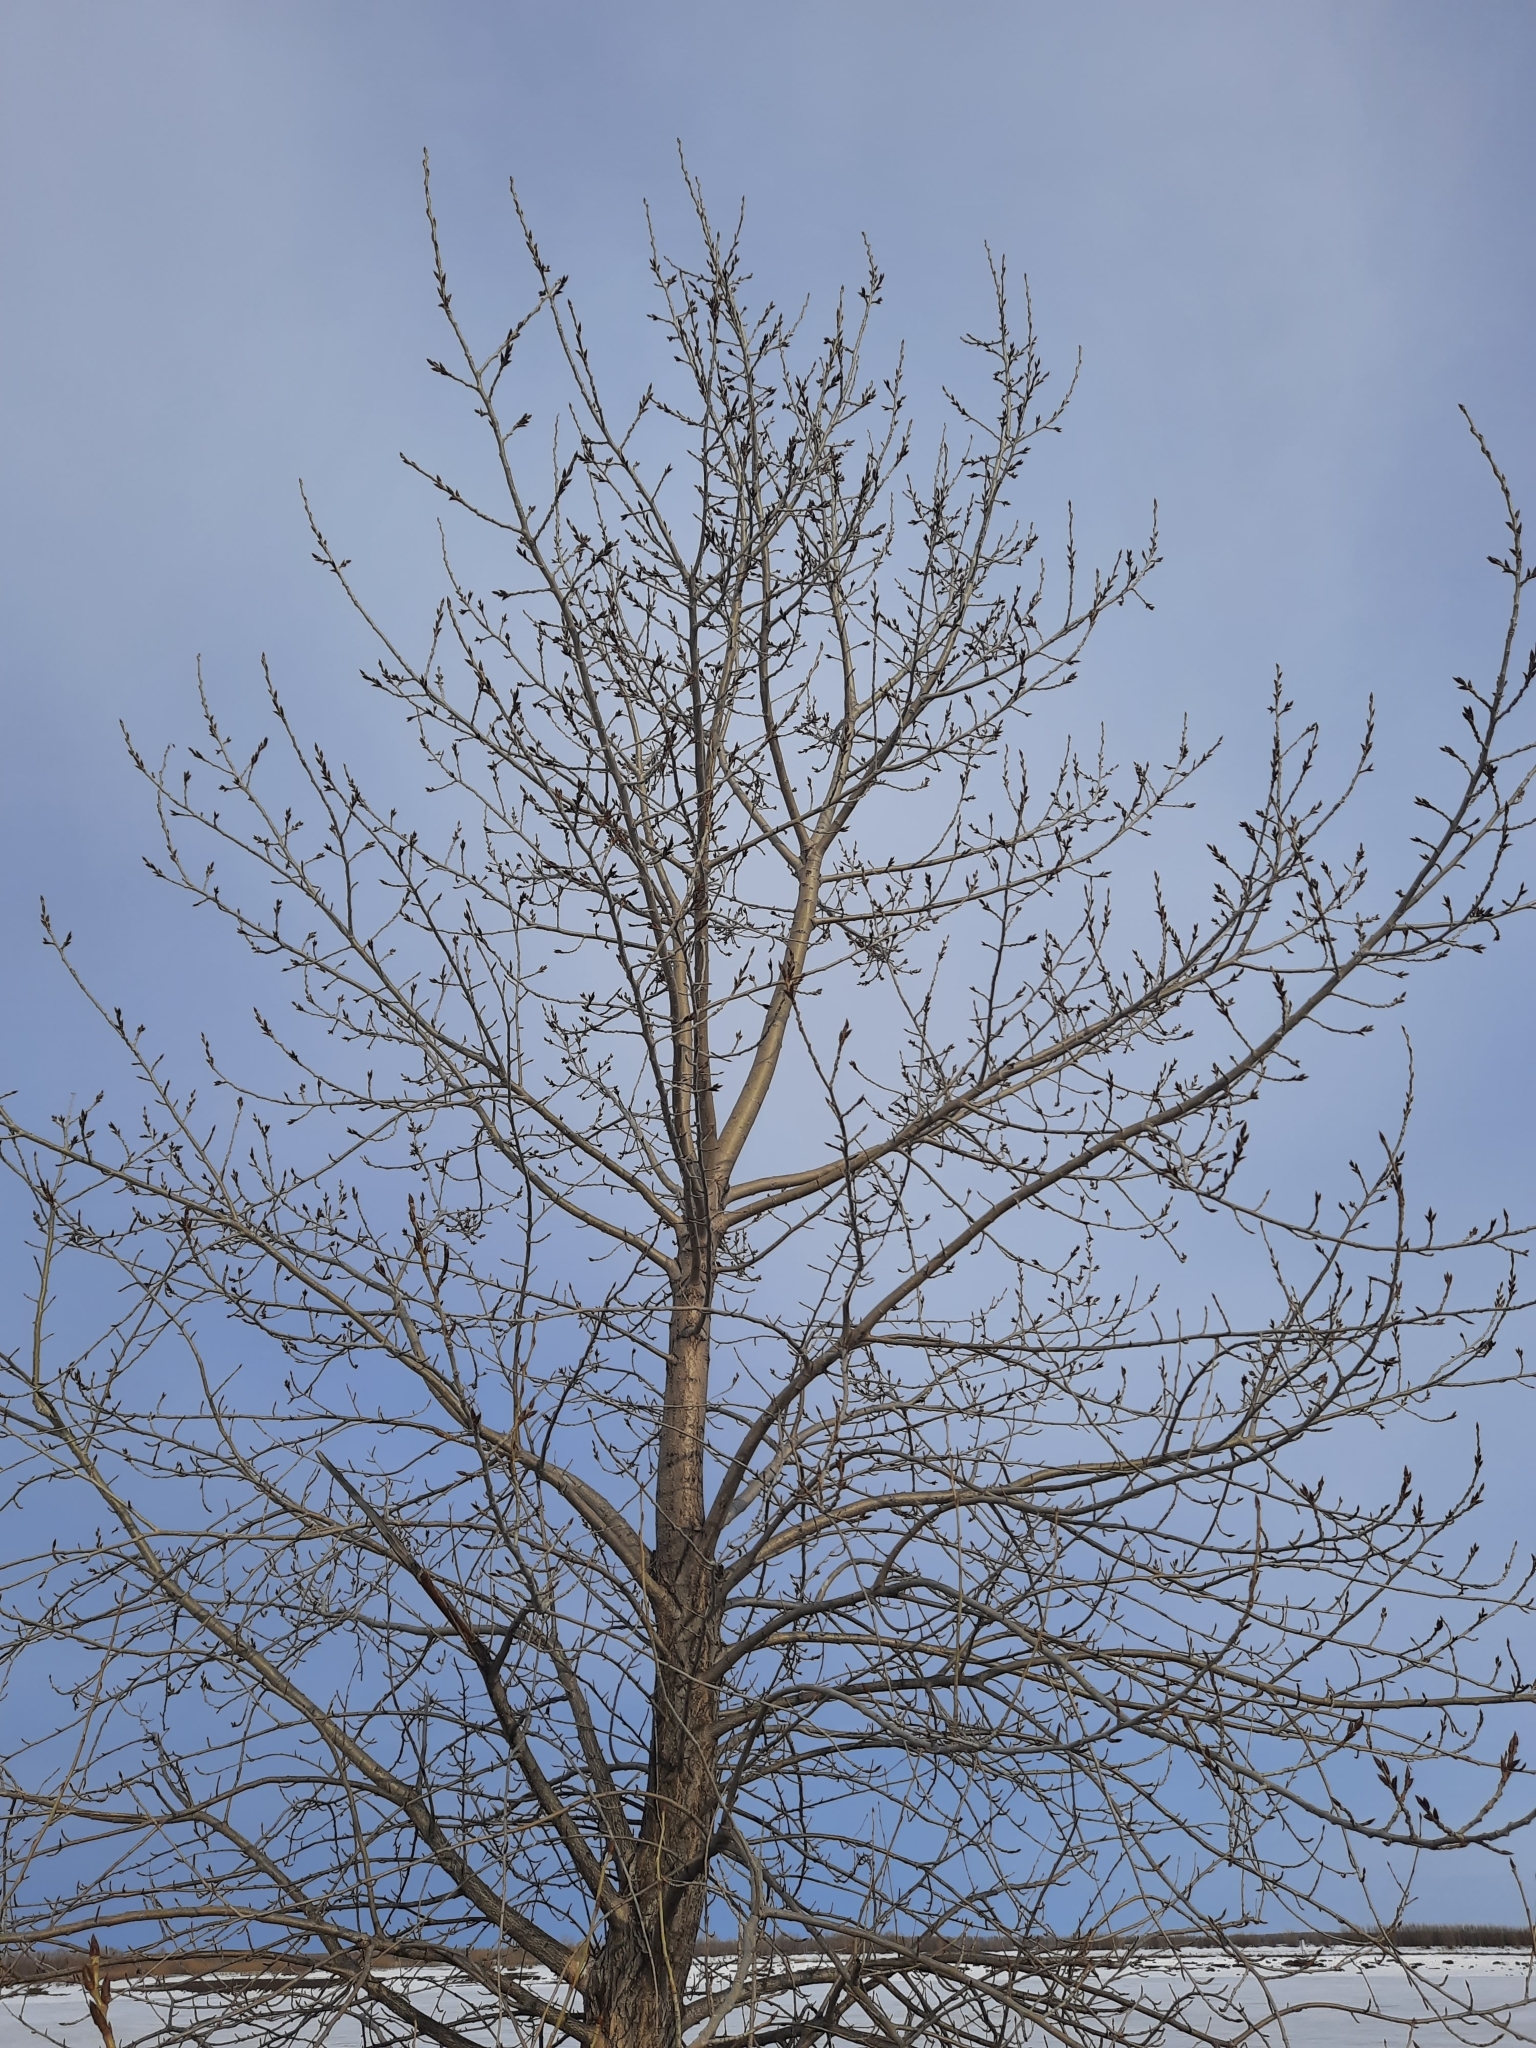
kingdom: Plantae
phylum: Tracheophyta
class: Magnoliopsida
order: Malpighiales
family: Salicaceae
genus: Populus
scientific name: Populus sibirica
